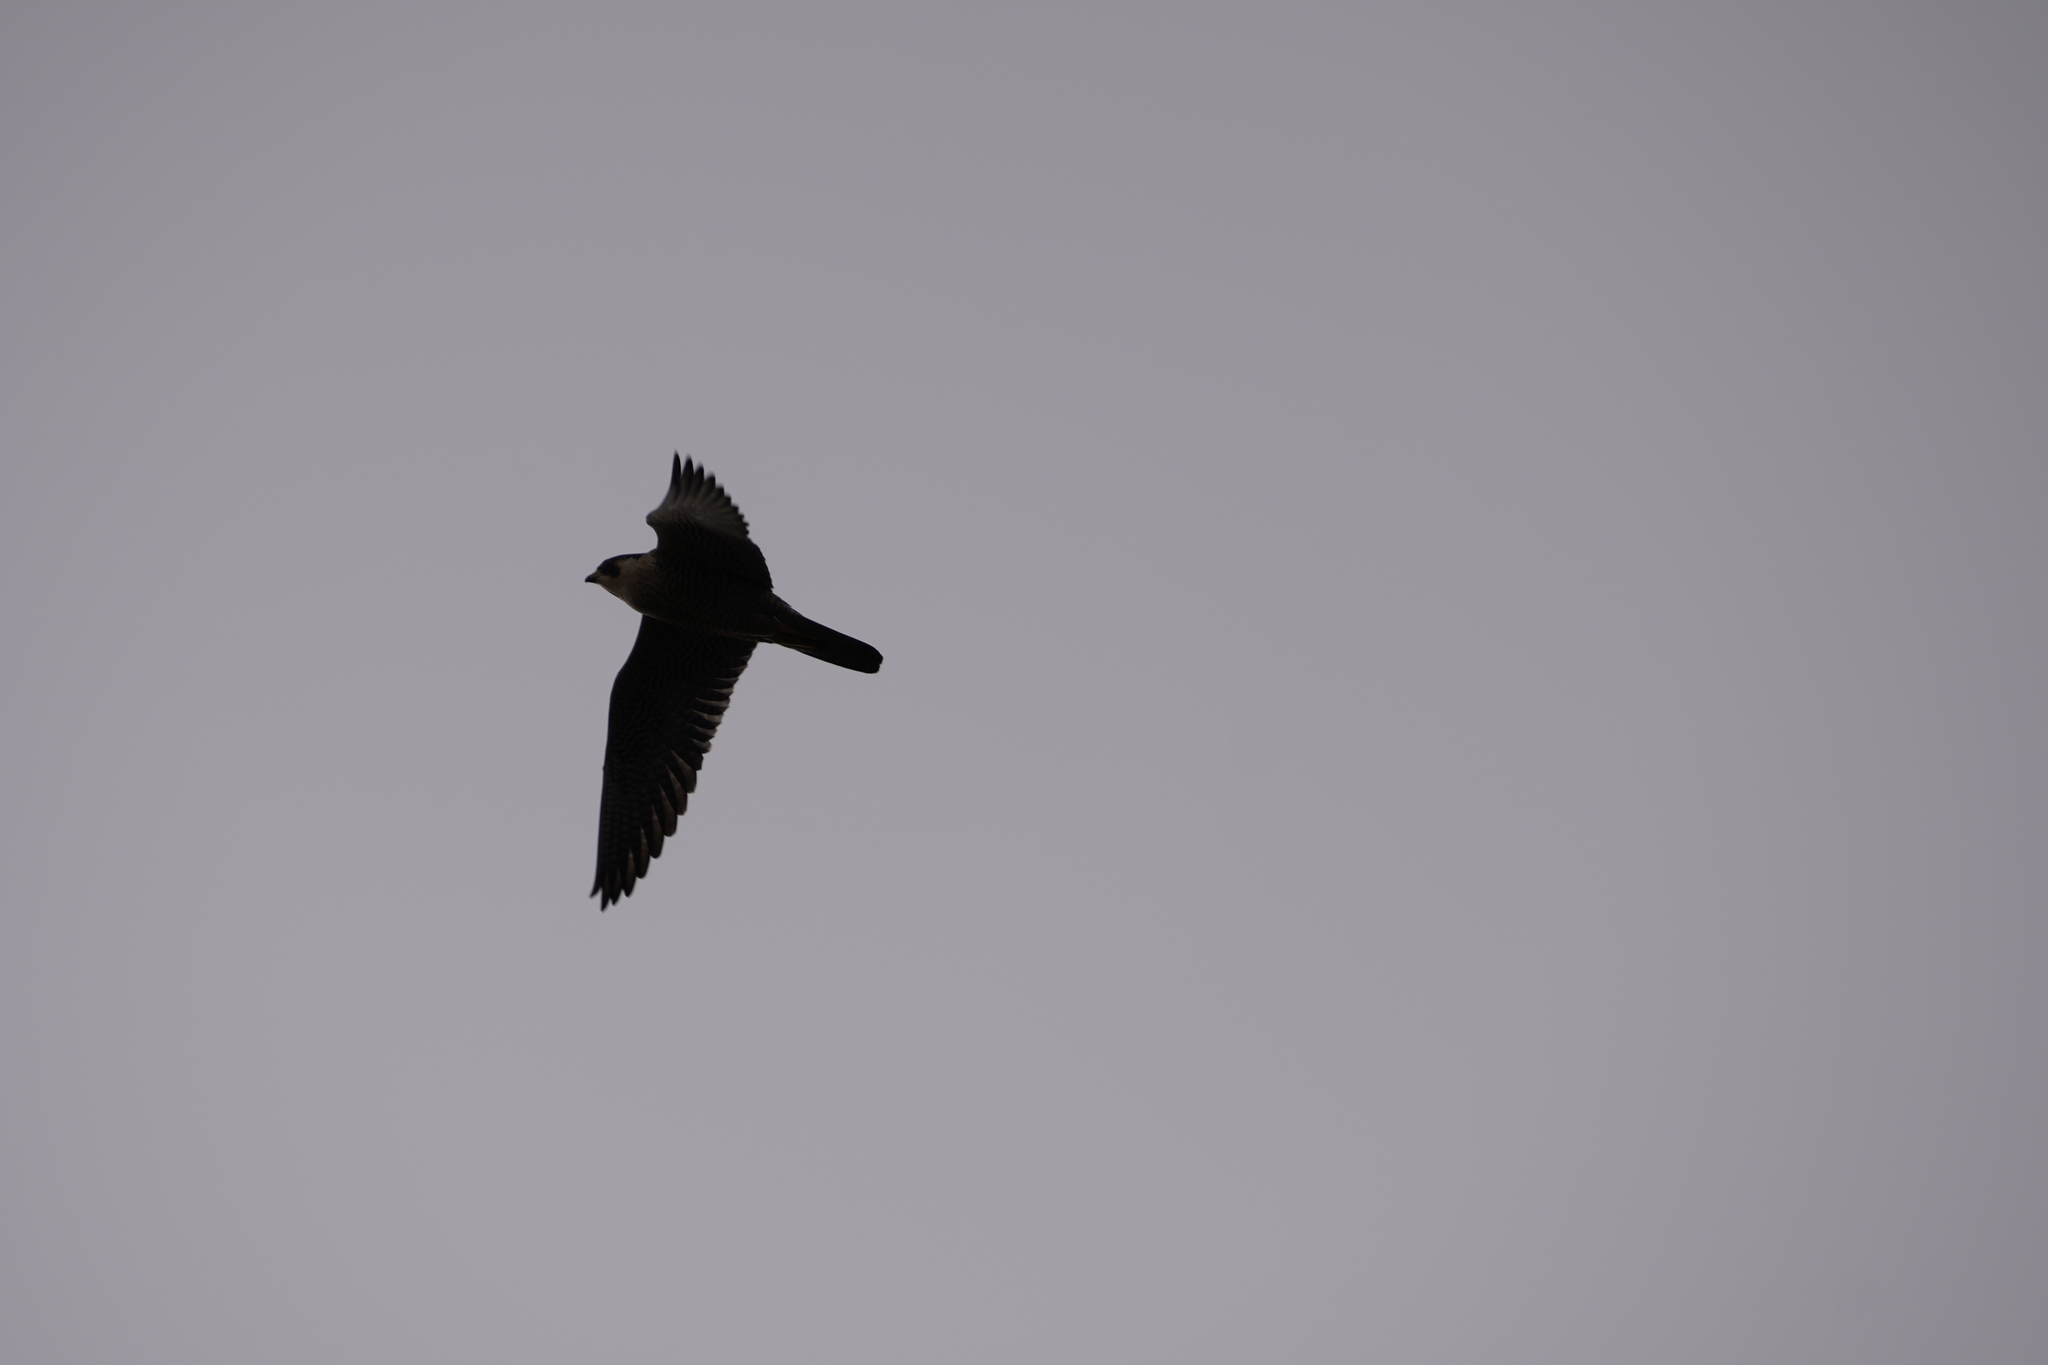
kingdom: Animalia
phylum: Chordata
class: Aves
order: Falconiformes
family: Falconidae
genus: Falco
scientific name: Falco peregrinus
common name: Peregrine falcon
